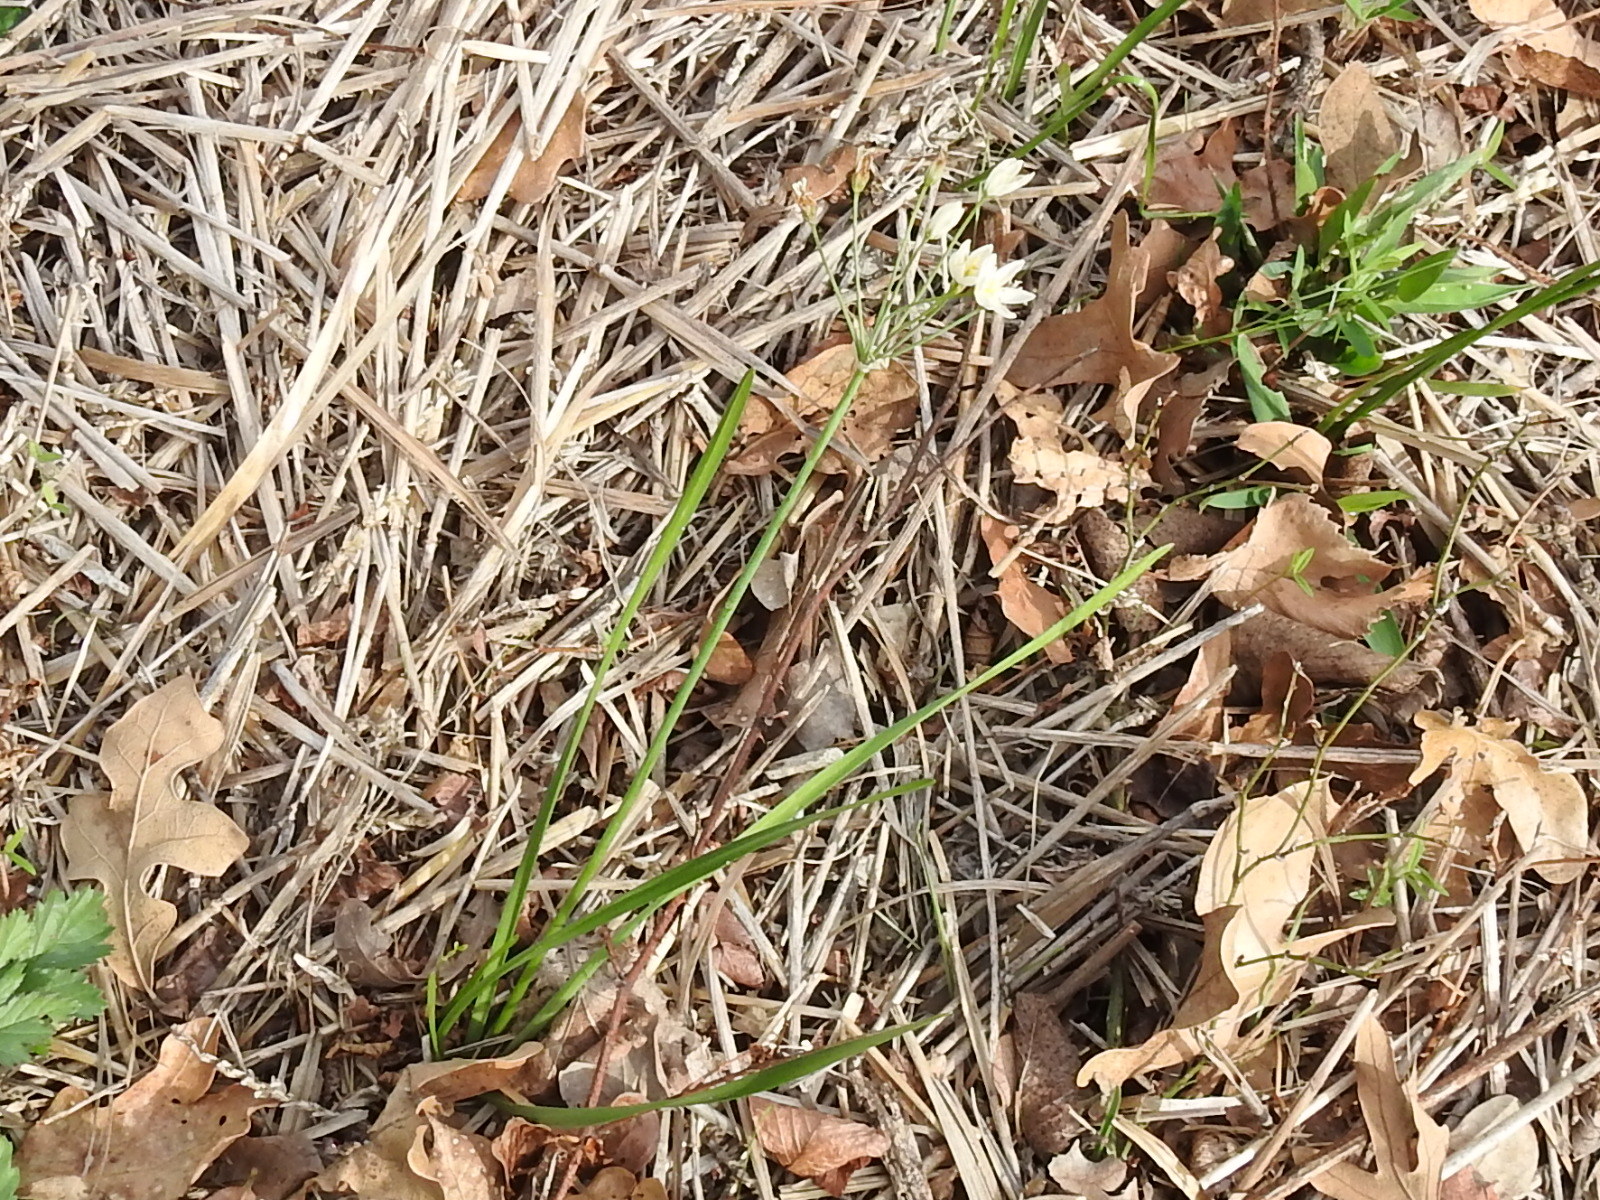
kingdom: Plantae
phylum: Tracheophyta
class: Liliopsida
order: Asparagales
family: Amaryllidaceae
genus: Nothoscordum
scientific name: Nothoscordum bivalve
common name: Crow-poison
